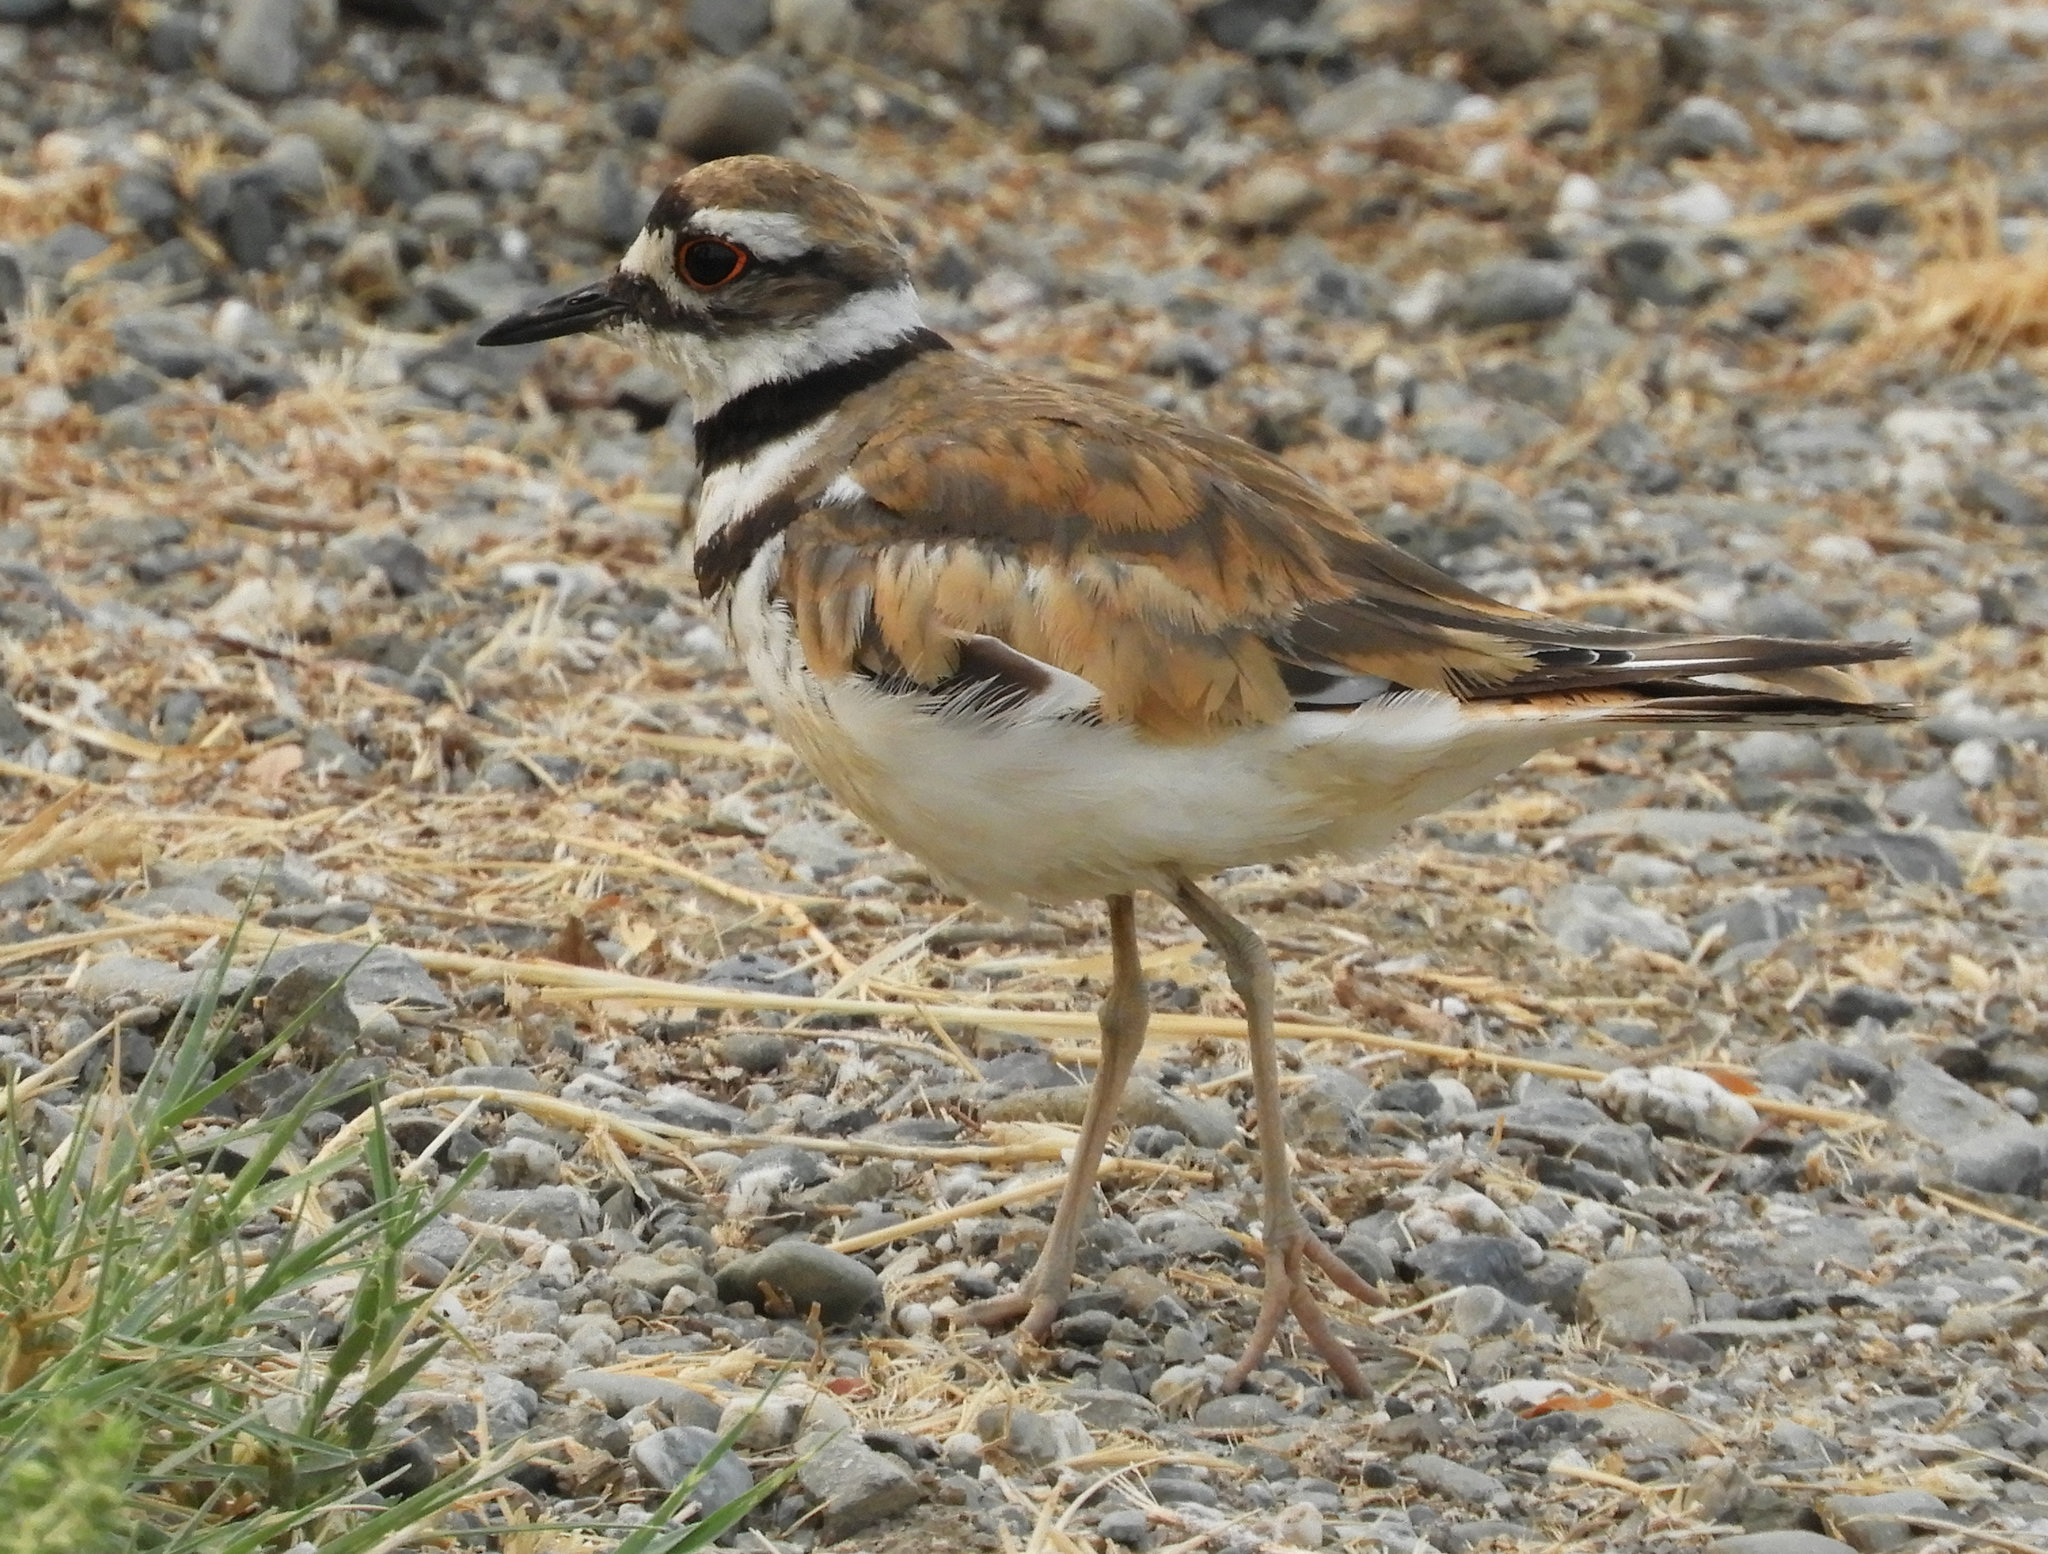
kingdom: Animalia
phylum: Chordata
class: Aves
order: Charadriiformes
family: Charadriidae
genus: Charadrius
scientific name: Charadrius vociferus
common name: Killdeer
